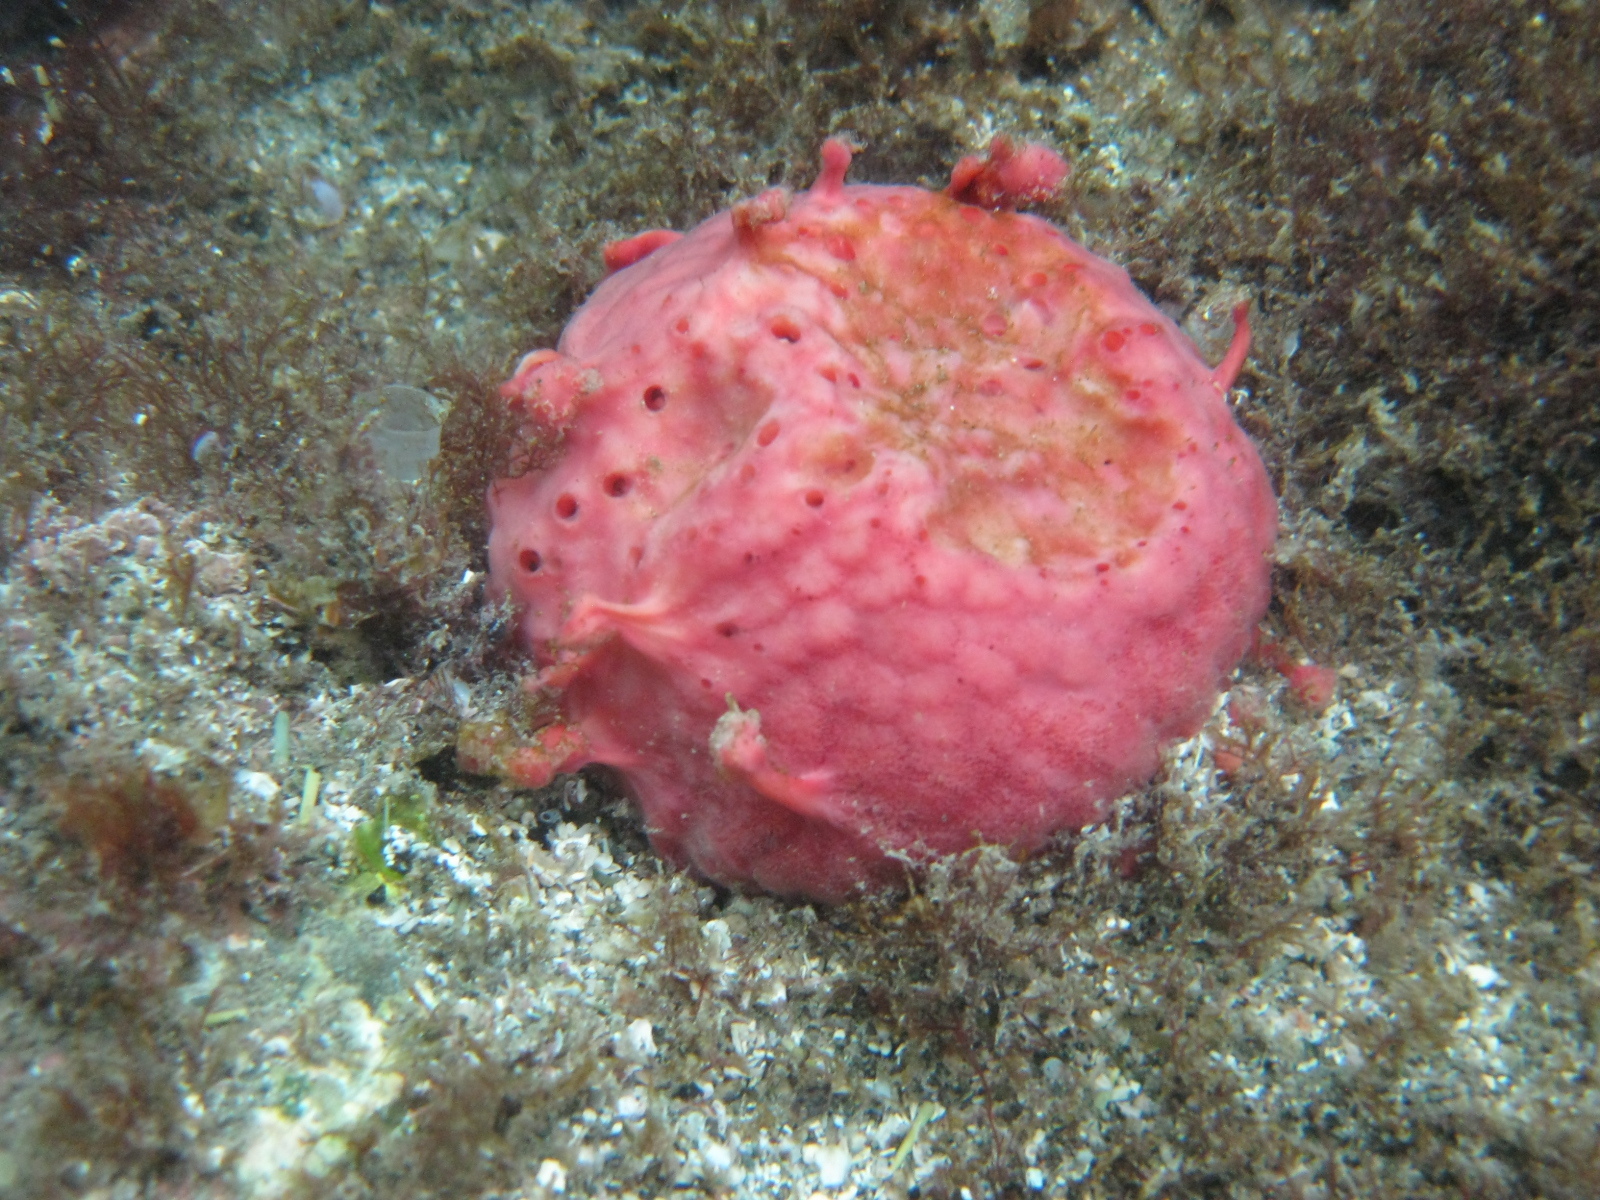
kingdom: Animalia
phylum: Porifera
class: Demospongiae
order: Tethyida
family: Tethyidae
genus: Tethya
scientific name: Tethya bergquistae
